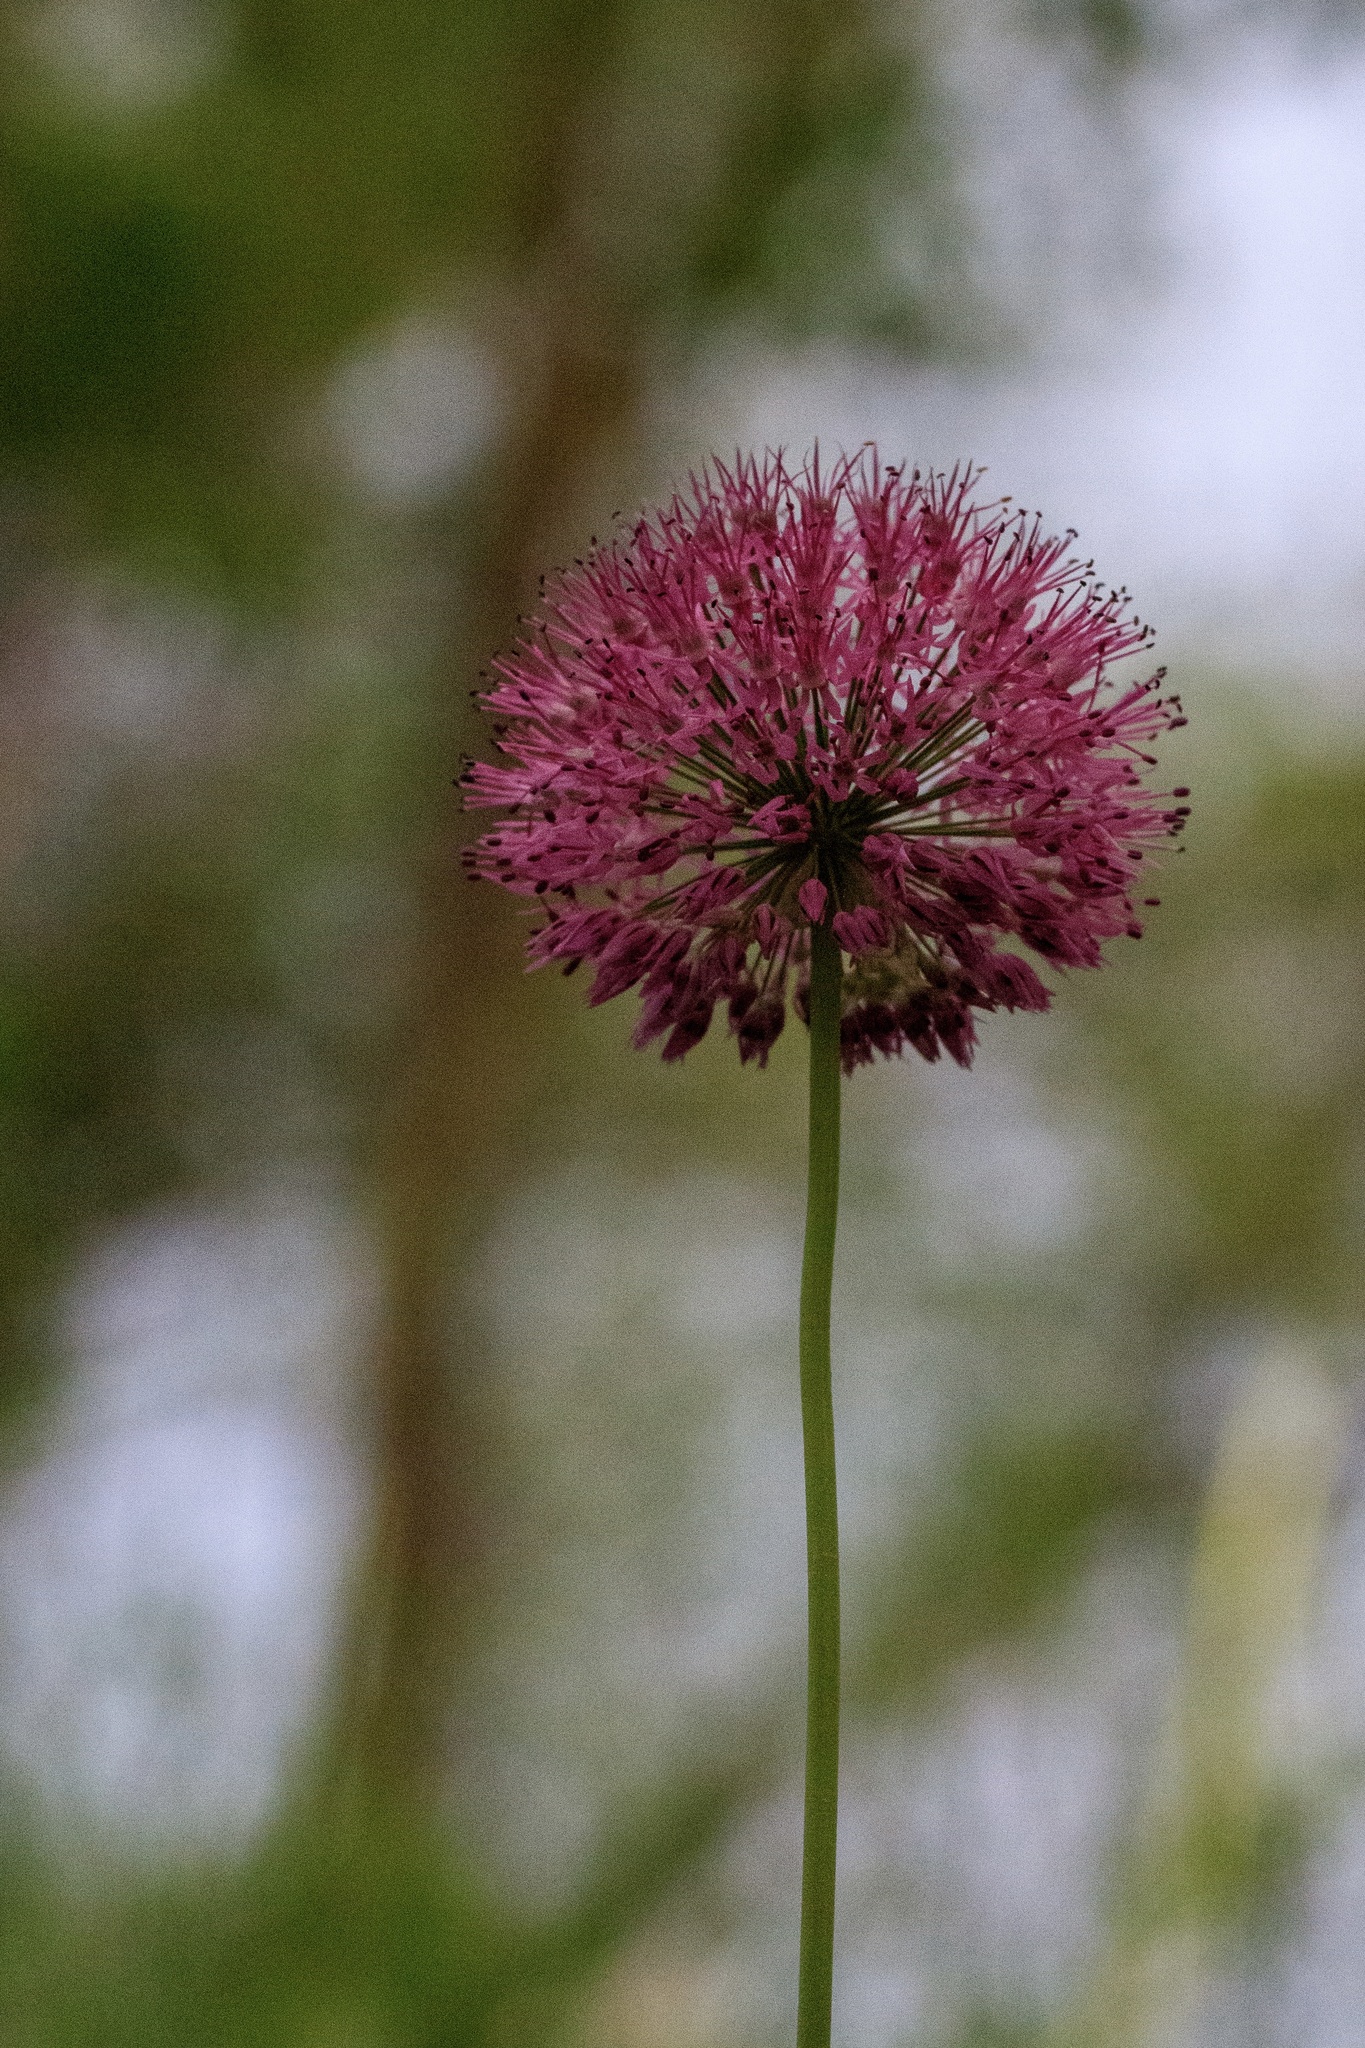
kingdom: Plantae
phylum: Tracheophyta
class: Liliopsida
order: Asparagales
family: Amaryllidaceae
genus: Allium
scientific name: Allium fetisowii
